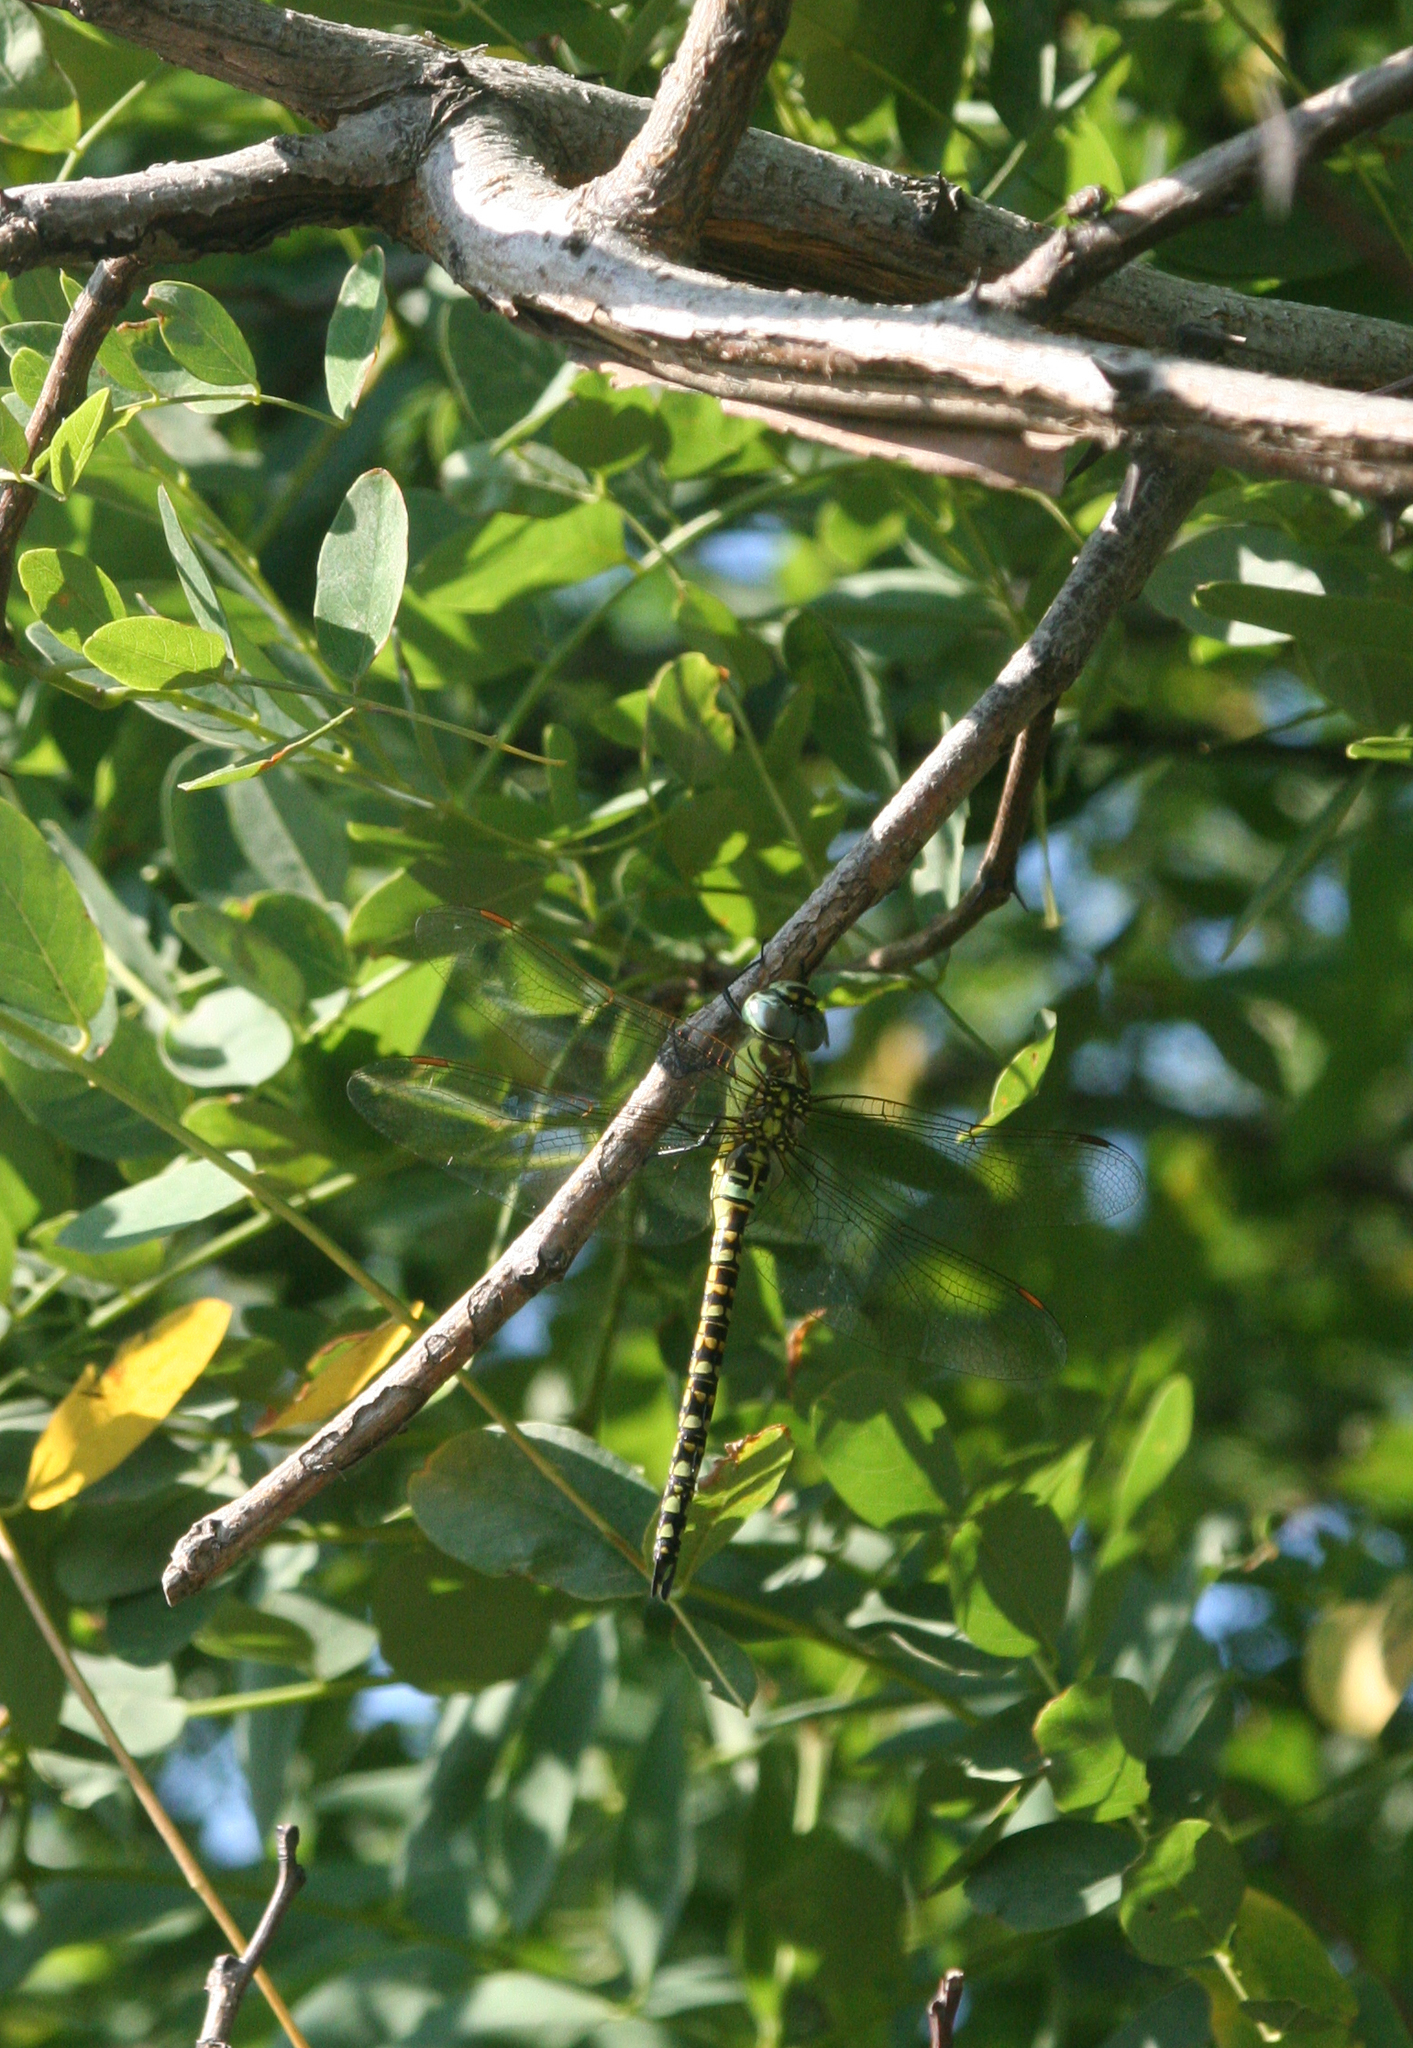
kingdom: Animalia
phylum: Arthropoda
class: Insecta
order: Odonata
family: Aeshnidae
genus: Aeshna
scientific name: Aeshna affinis
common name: Southern migrant hawker
